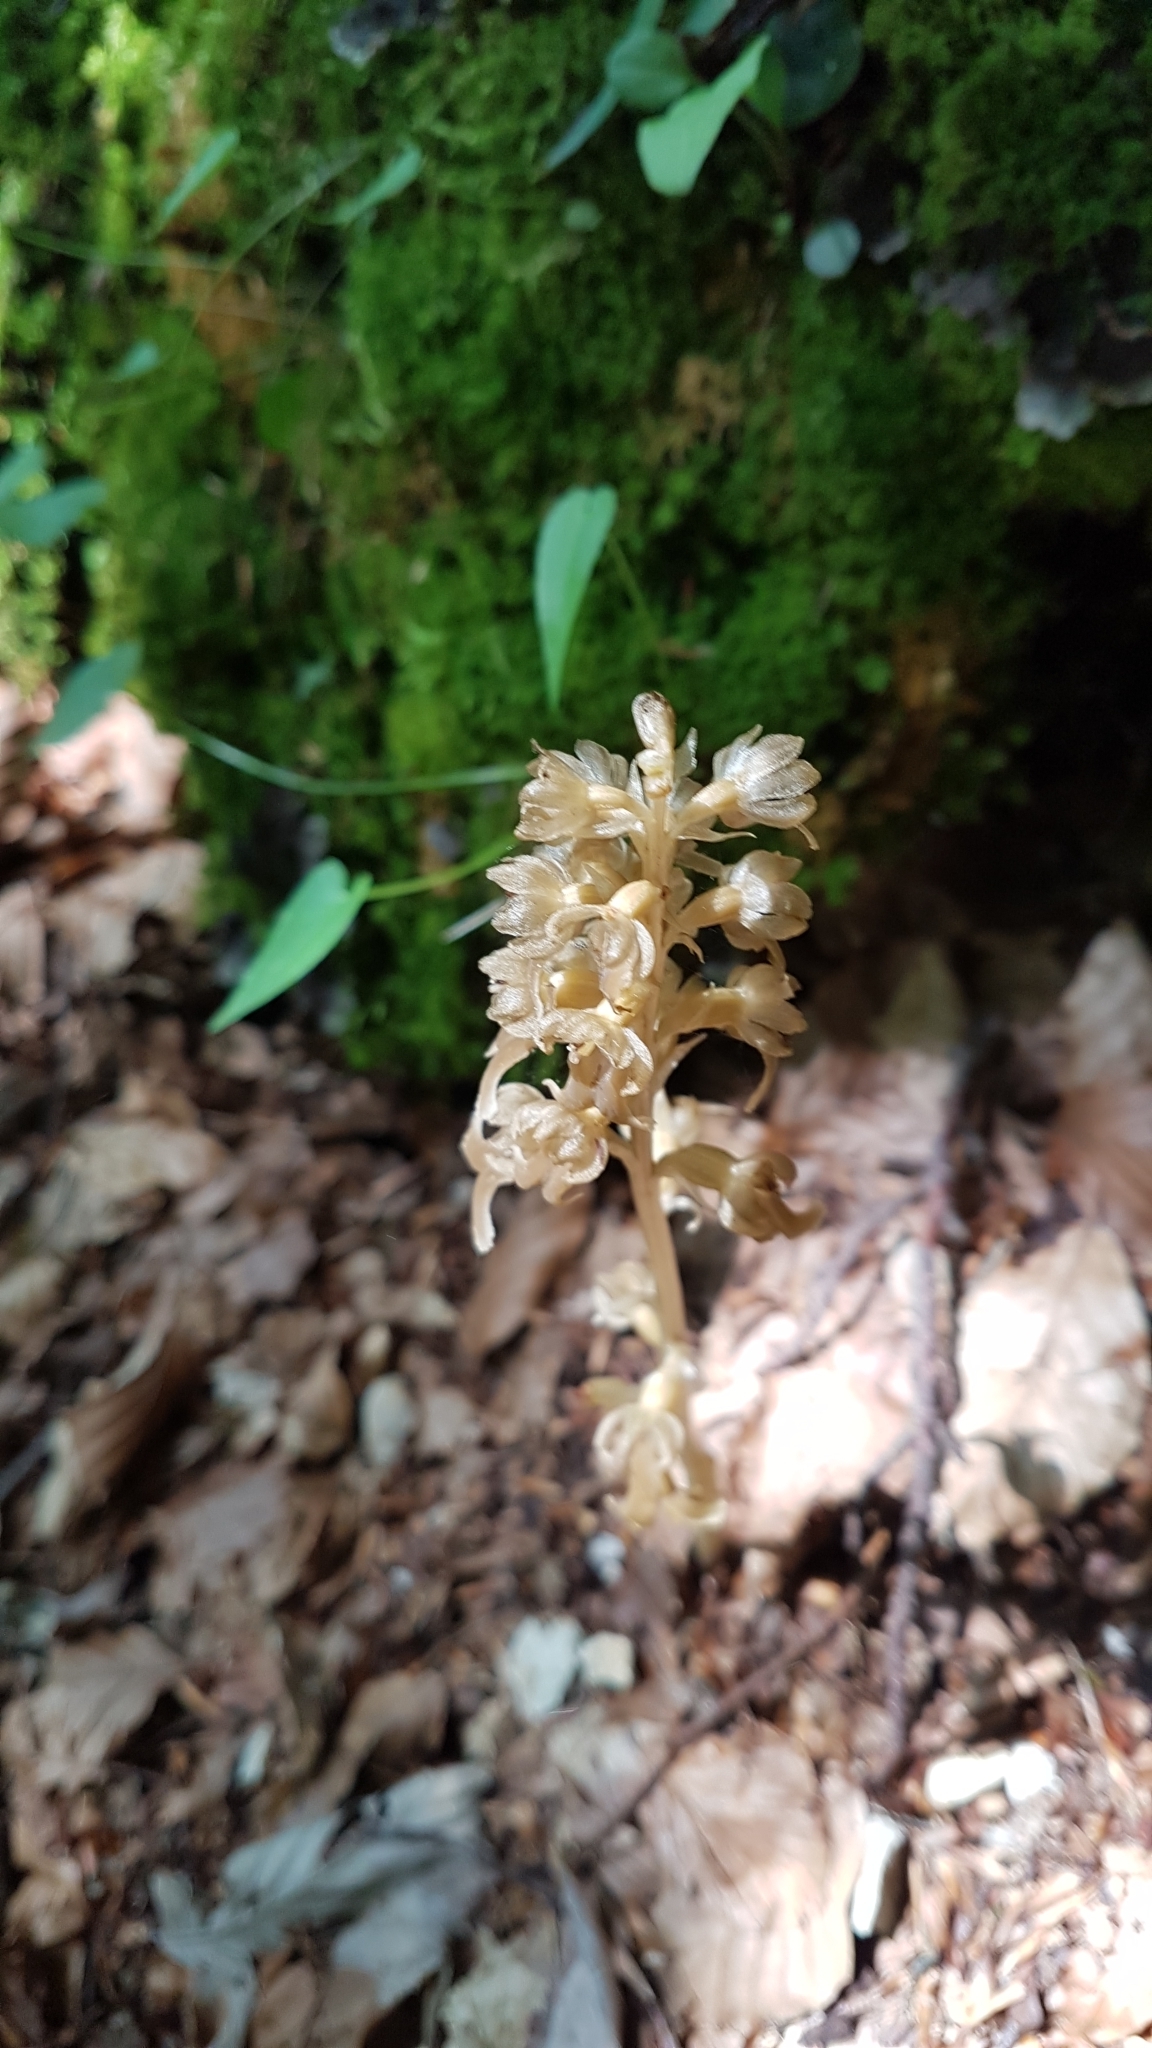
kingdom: Plantae
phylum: Tracheophyta
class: Liliopsida
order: Asparagales
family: Orchidaceae
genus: Neottia
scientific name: Neottia nidus-avis
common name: Bird's-nest orchid
